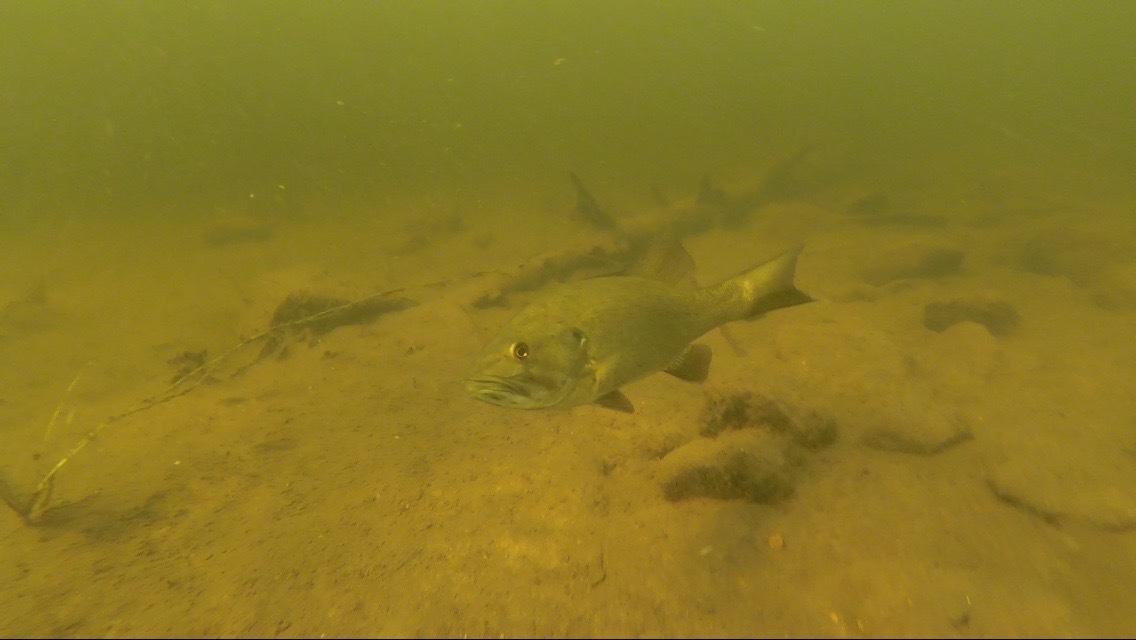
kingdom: Animalia
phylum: Chordata
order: Perciformes
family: Centrarchidae
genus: Micropterus
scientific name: Micropterus dolomieu
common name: Smallmouth bass
